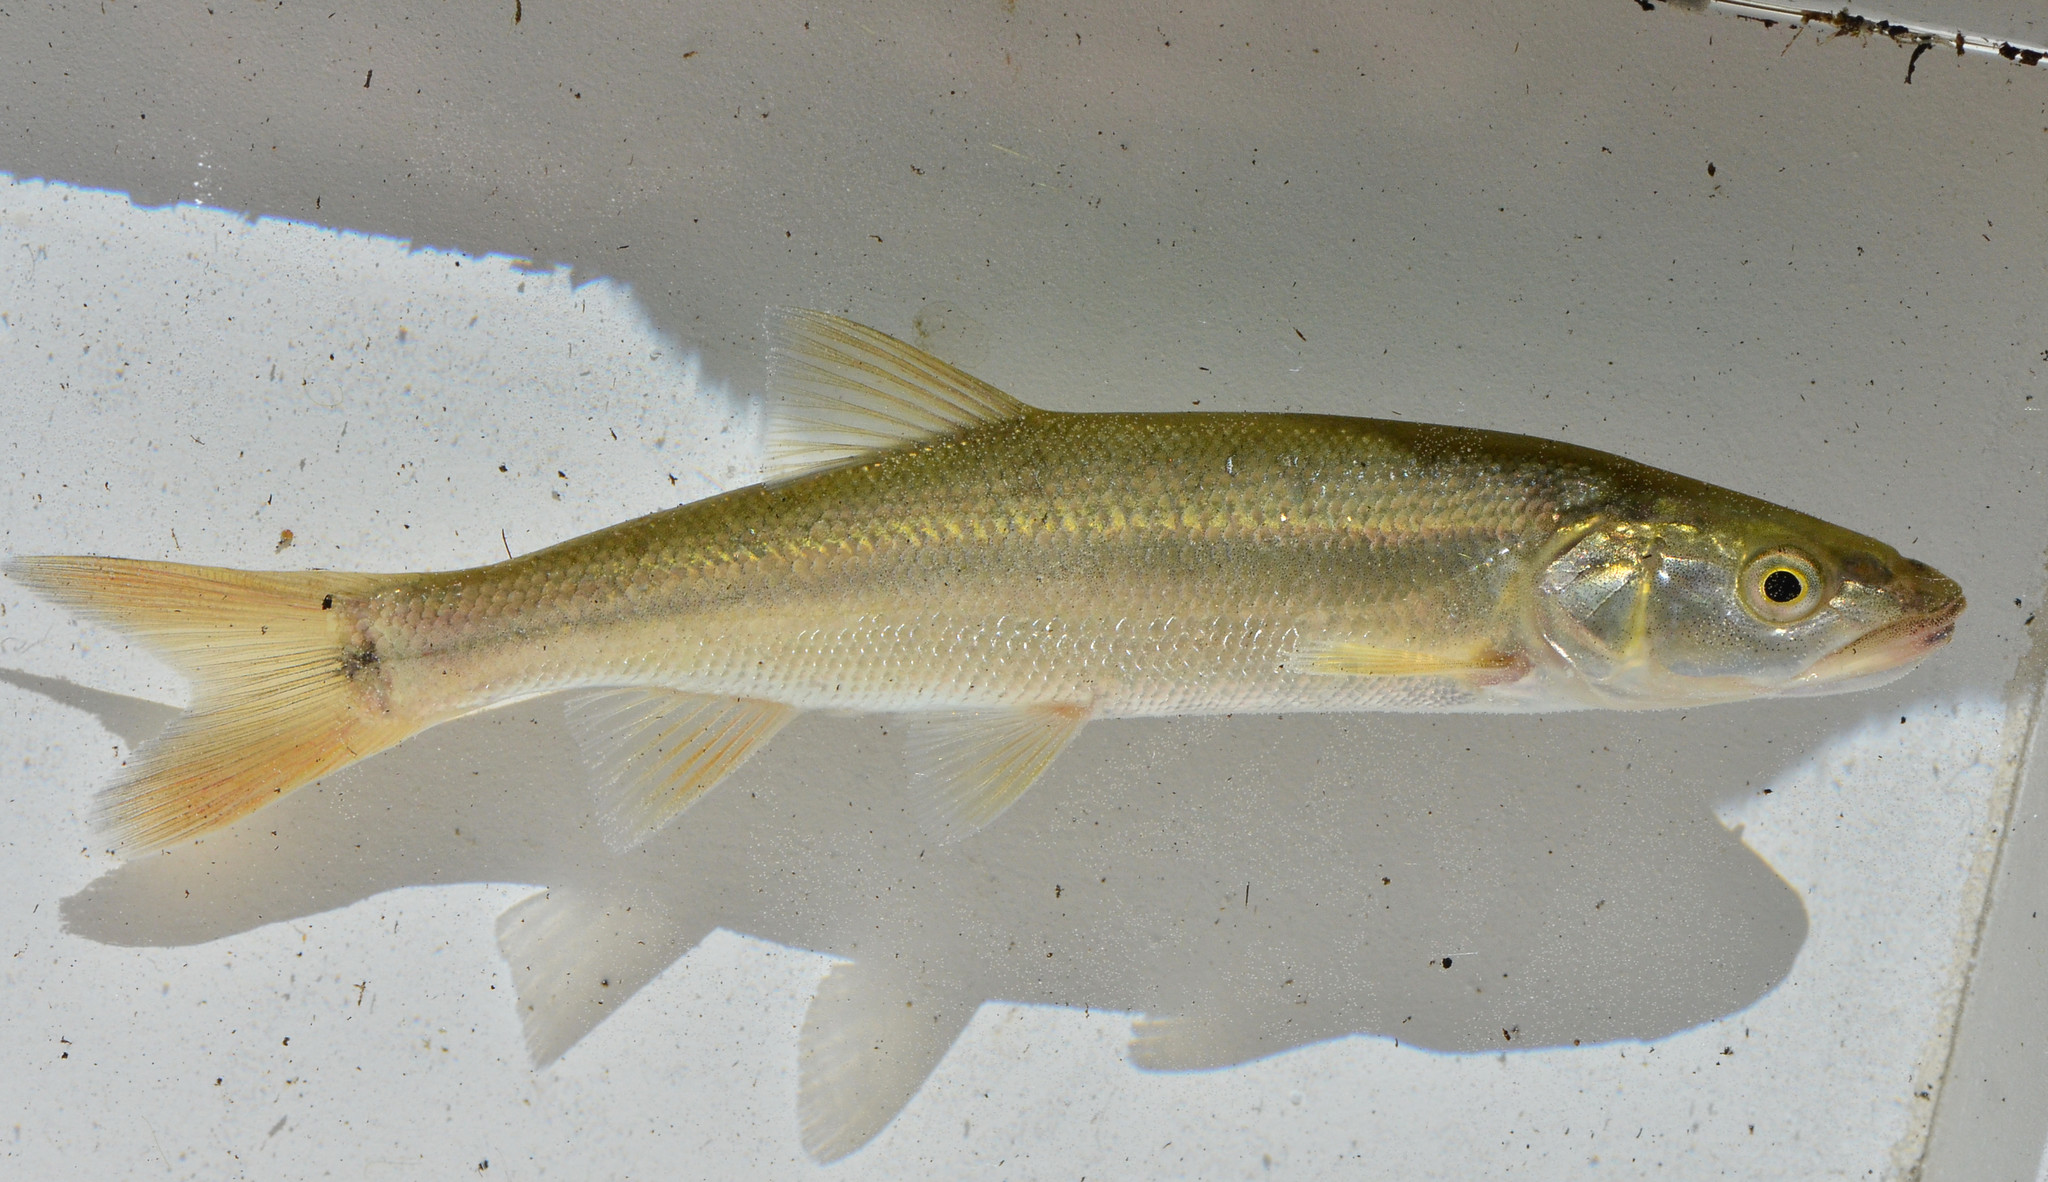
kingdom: Animalia
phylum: Chordata
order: Cypriniformes
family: Cyprinidae
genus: Ptychocheilus
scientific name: Ptychocheilus grandis
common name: Sacramento pikeminnow
